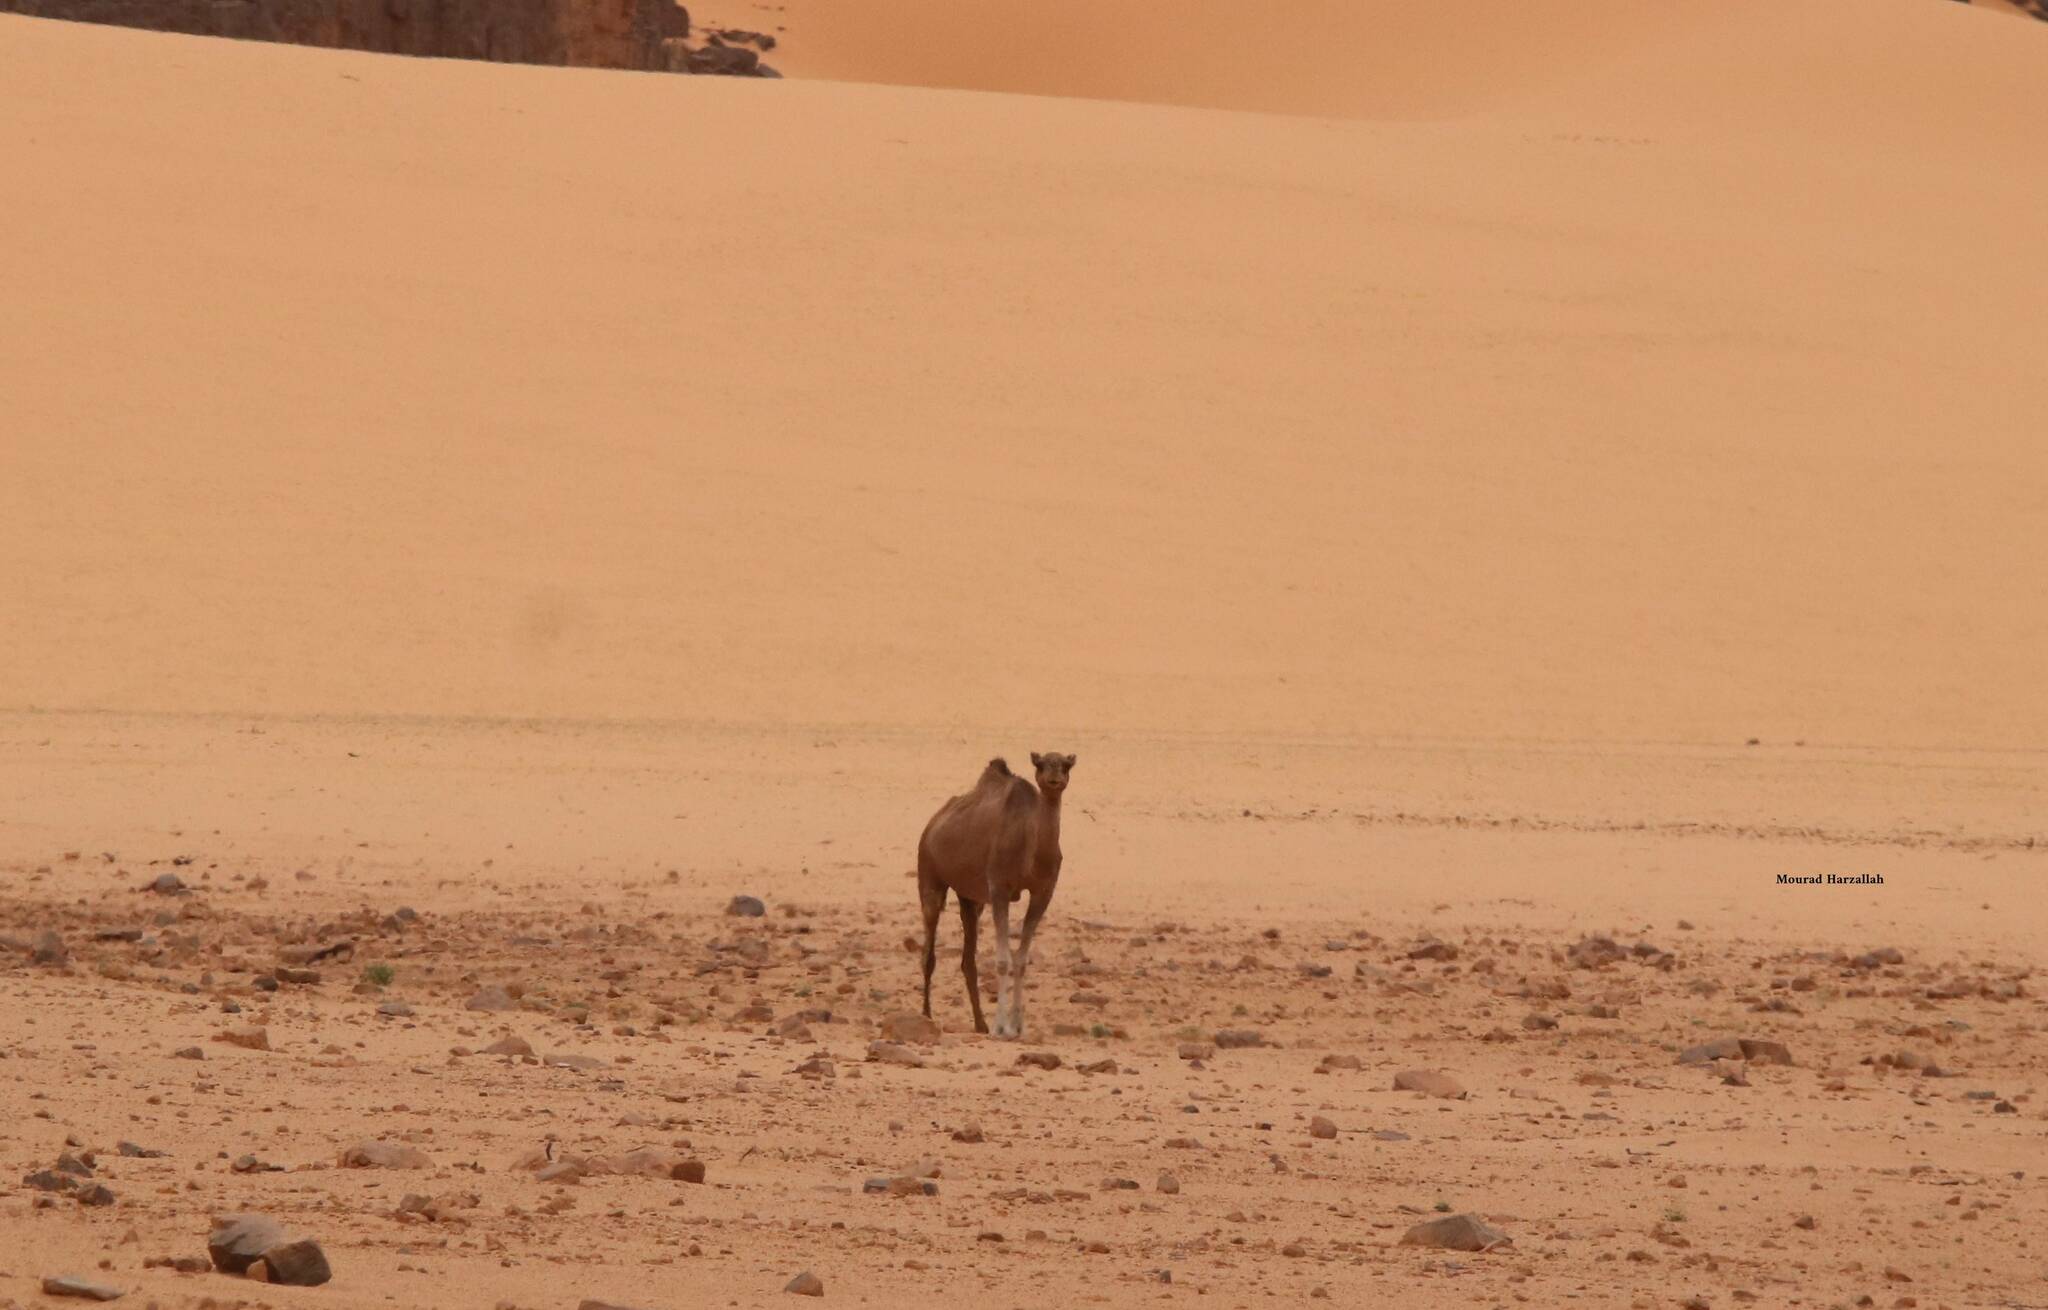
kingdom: Animalia
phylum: Chordata
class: Mammalia
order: Artiodactyla
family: Camelidae
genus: Camelus
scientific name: Camelus dromedarius
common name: One-humped camel
